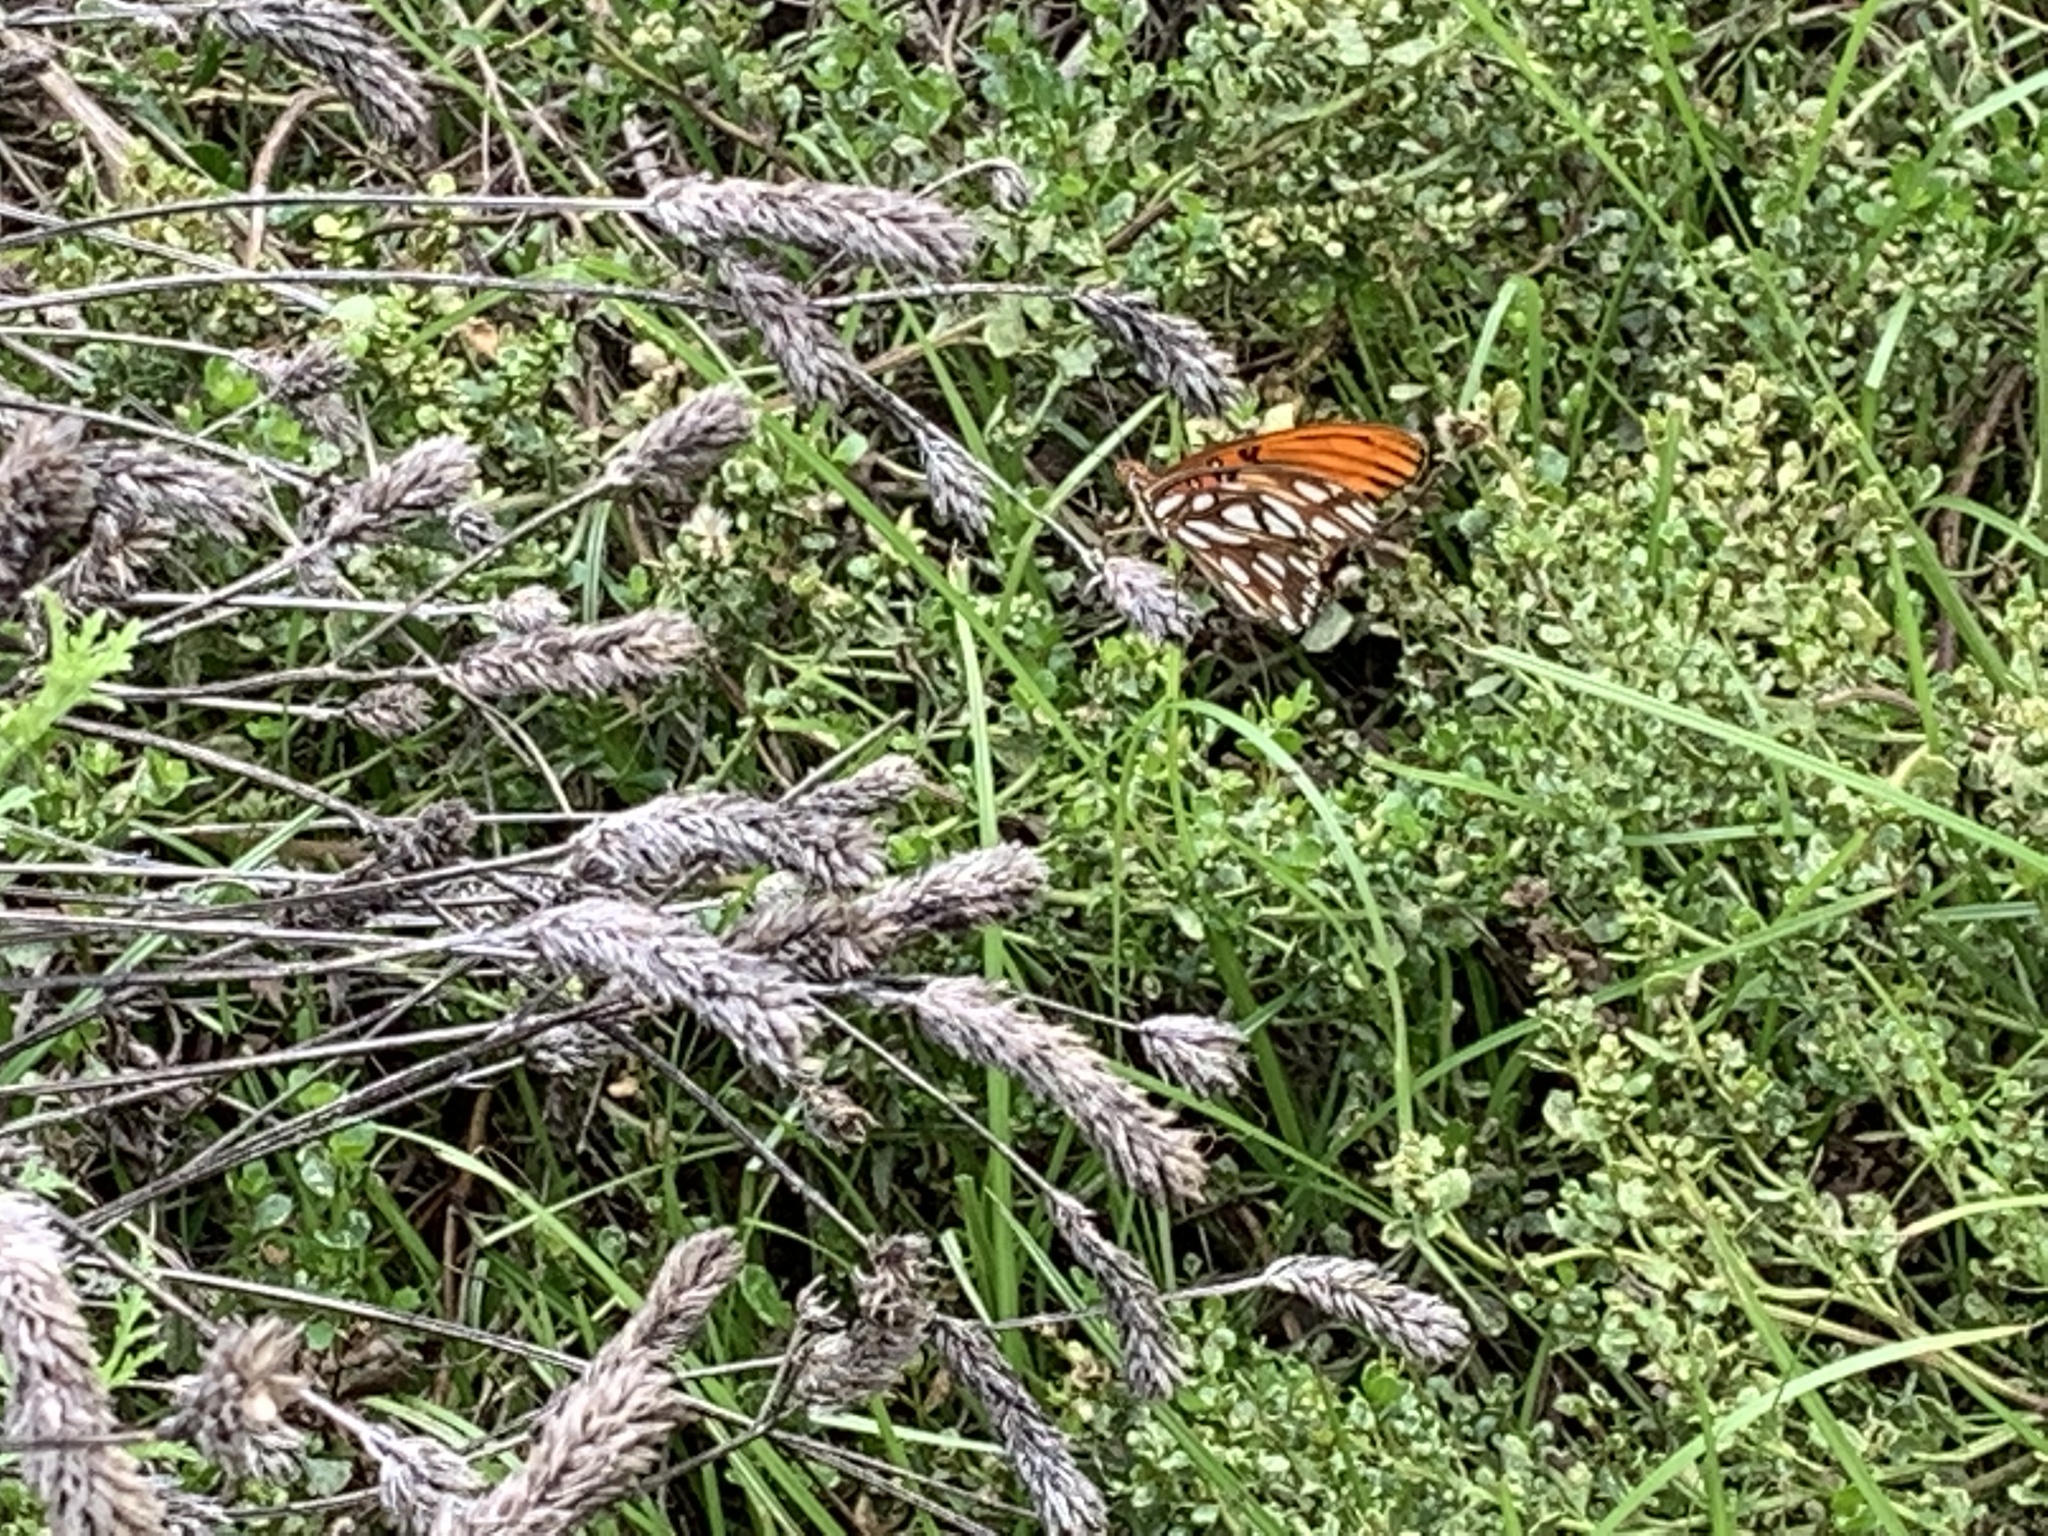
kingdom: Animalia
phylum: Arthropoda
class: Insecta
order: Lepidoptera
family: Nymphalidae
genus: Dione
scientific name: Dione vanillae
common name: Gulf fritillary
